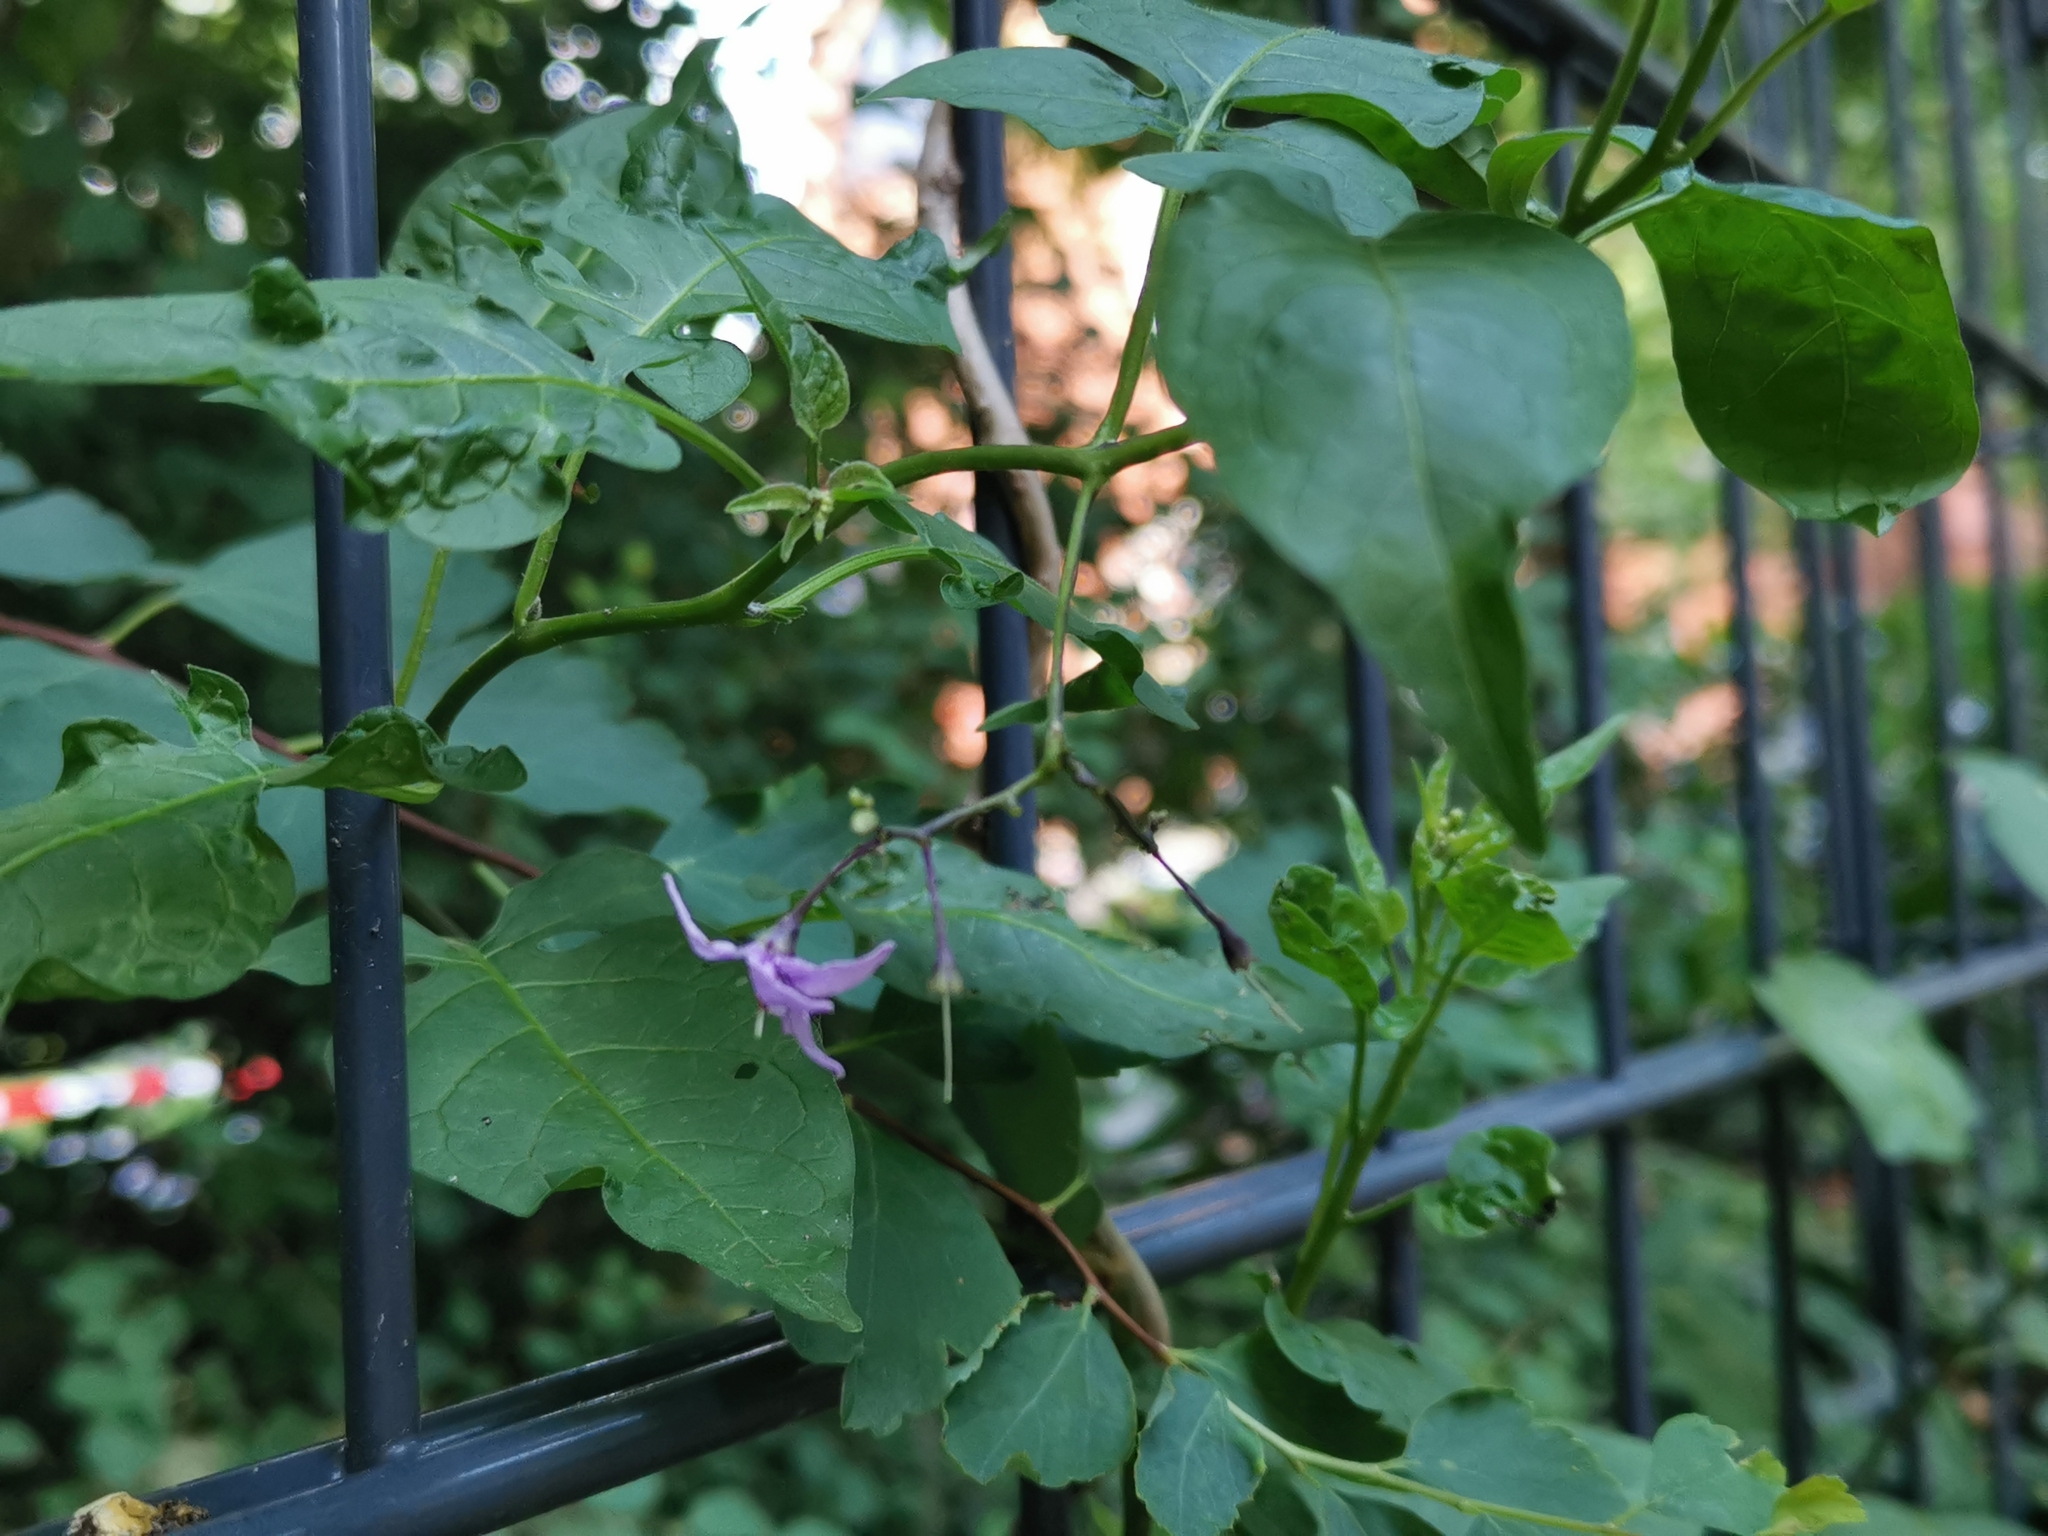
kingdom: Plantae
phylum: Tracheophyta
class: Magnoliopsida
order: Solanales
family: Solanaceae
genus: Solanum
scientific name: Solanum dulcamara
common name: Climbing nightshade
